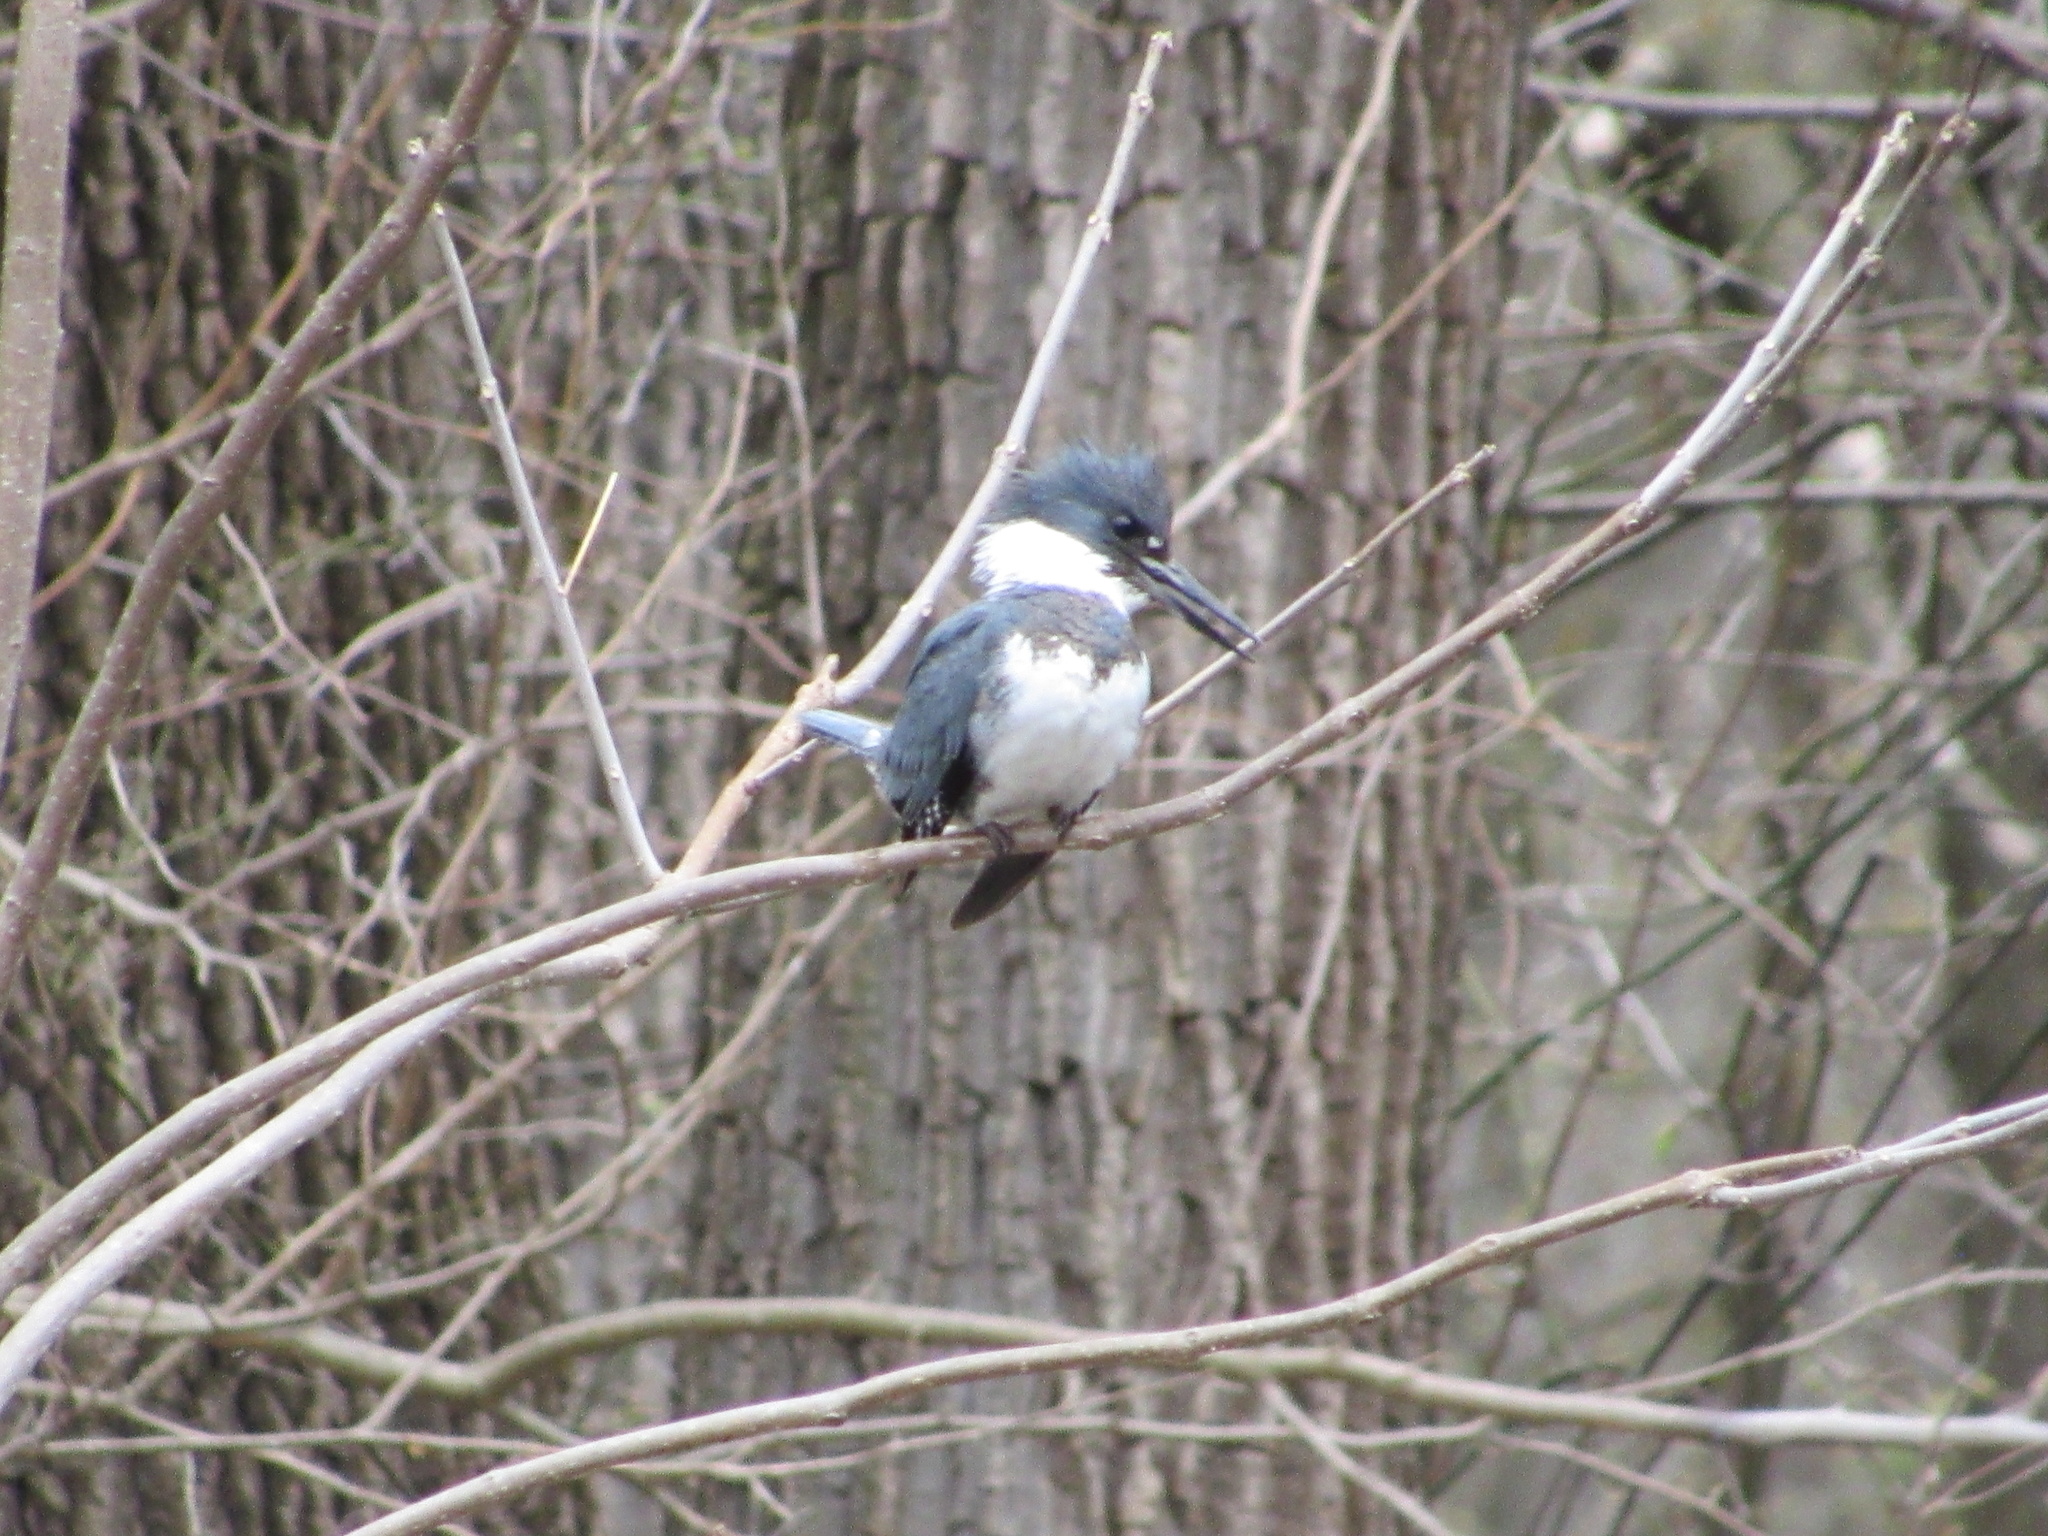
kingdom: Animalia
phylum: Chordata
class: Aves
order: Coraciiformes
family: Alcedinidae
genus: Megaceryle
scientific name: Megaceryle alcyon
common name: Belted kingfisher
